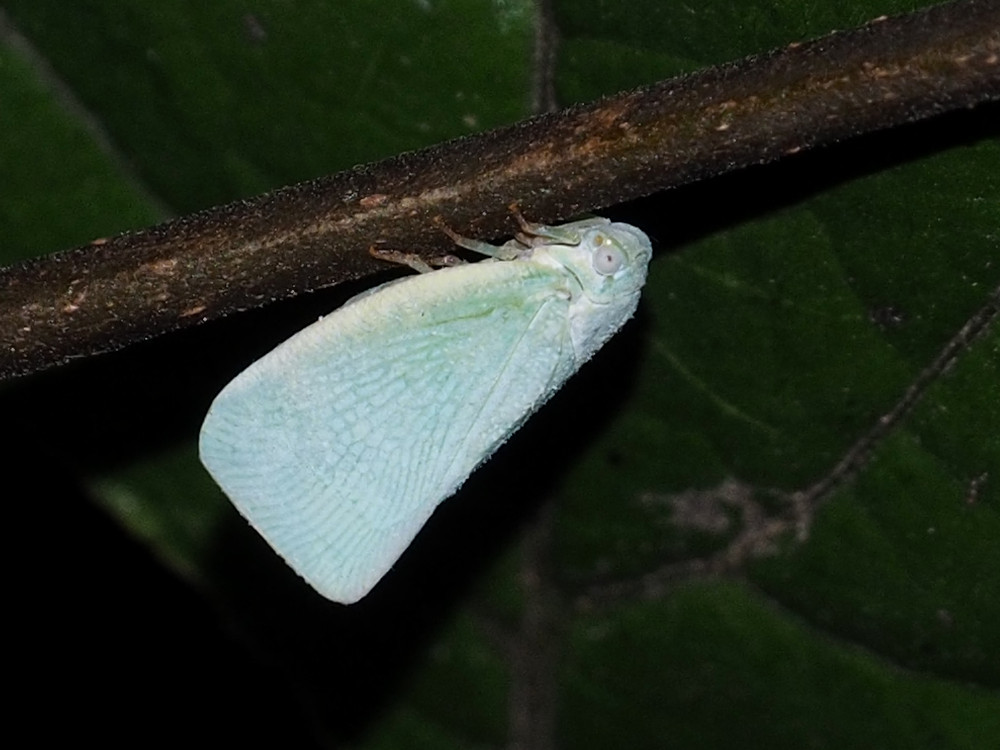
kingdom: Animalia
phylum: Arthropoda
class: Insecta
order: Hemiptera
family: Flatidae
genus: Flatormenis
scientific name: Flatormenis proxima
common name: Northern flatid planthopper
